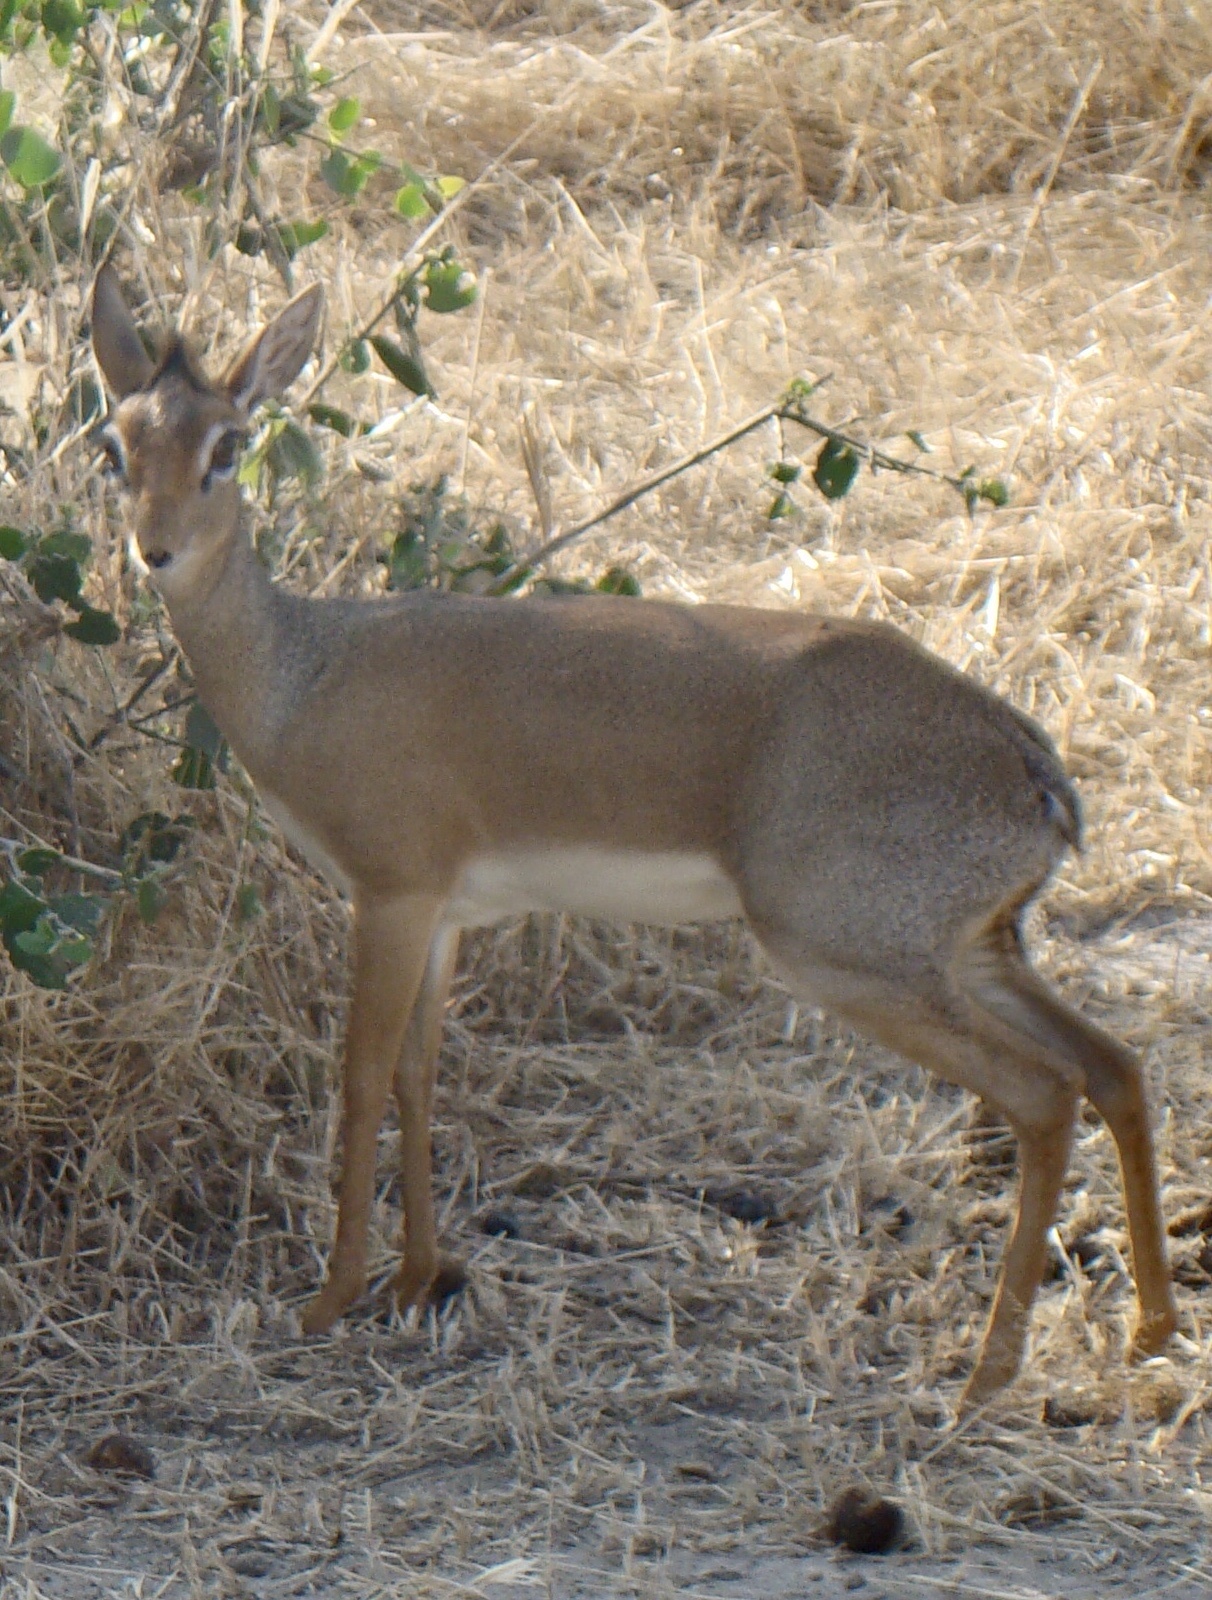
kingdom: Animalia
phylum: Chordata
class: Mammalia
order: Artiodactyla
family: Bovidae
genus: Madoqua
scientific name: Madoqua
